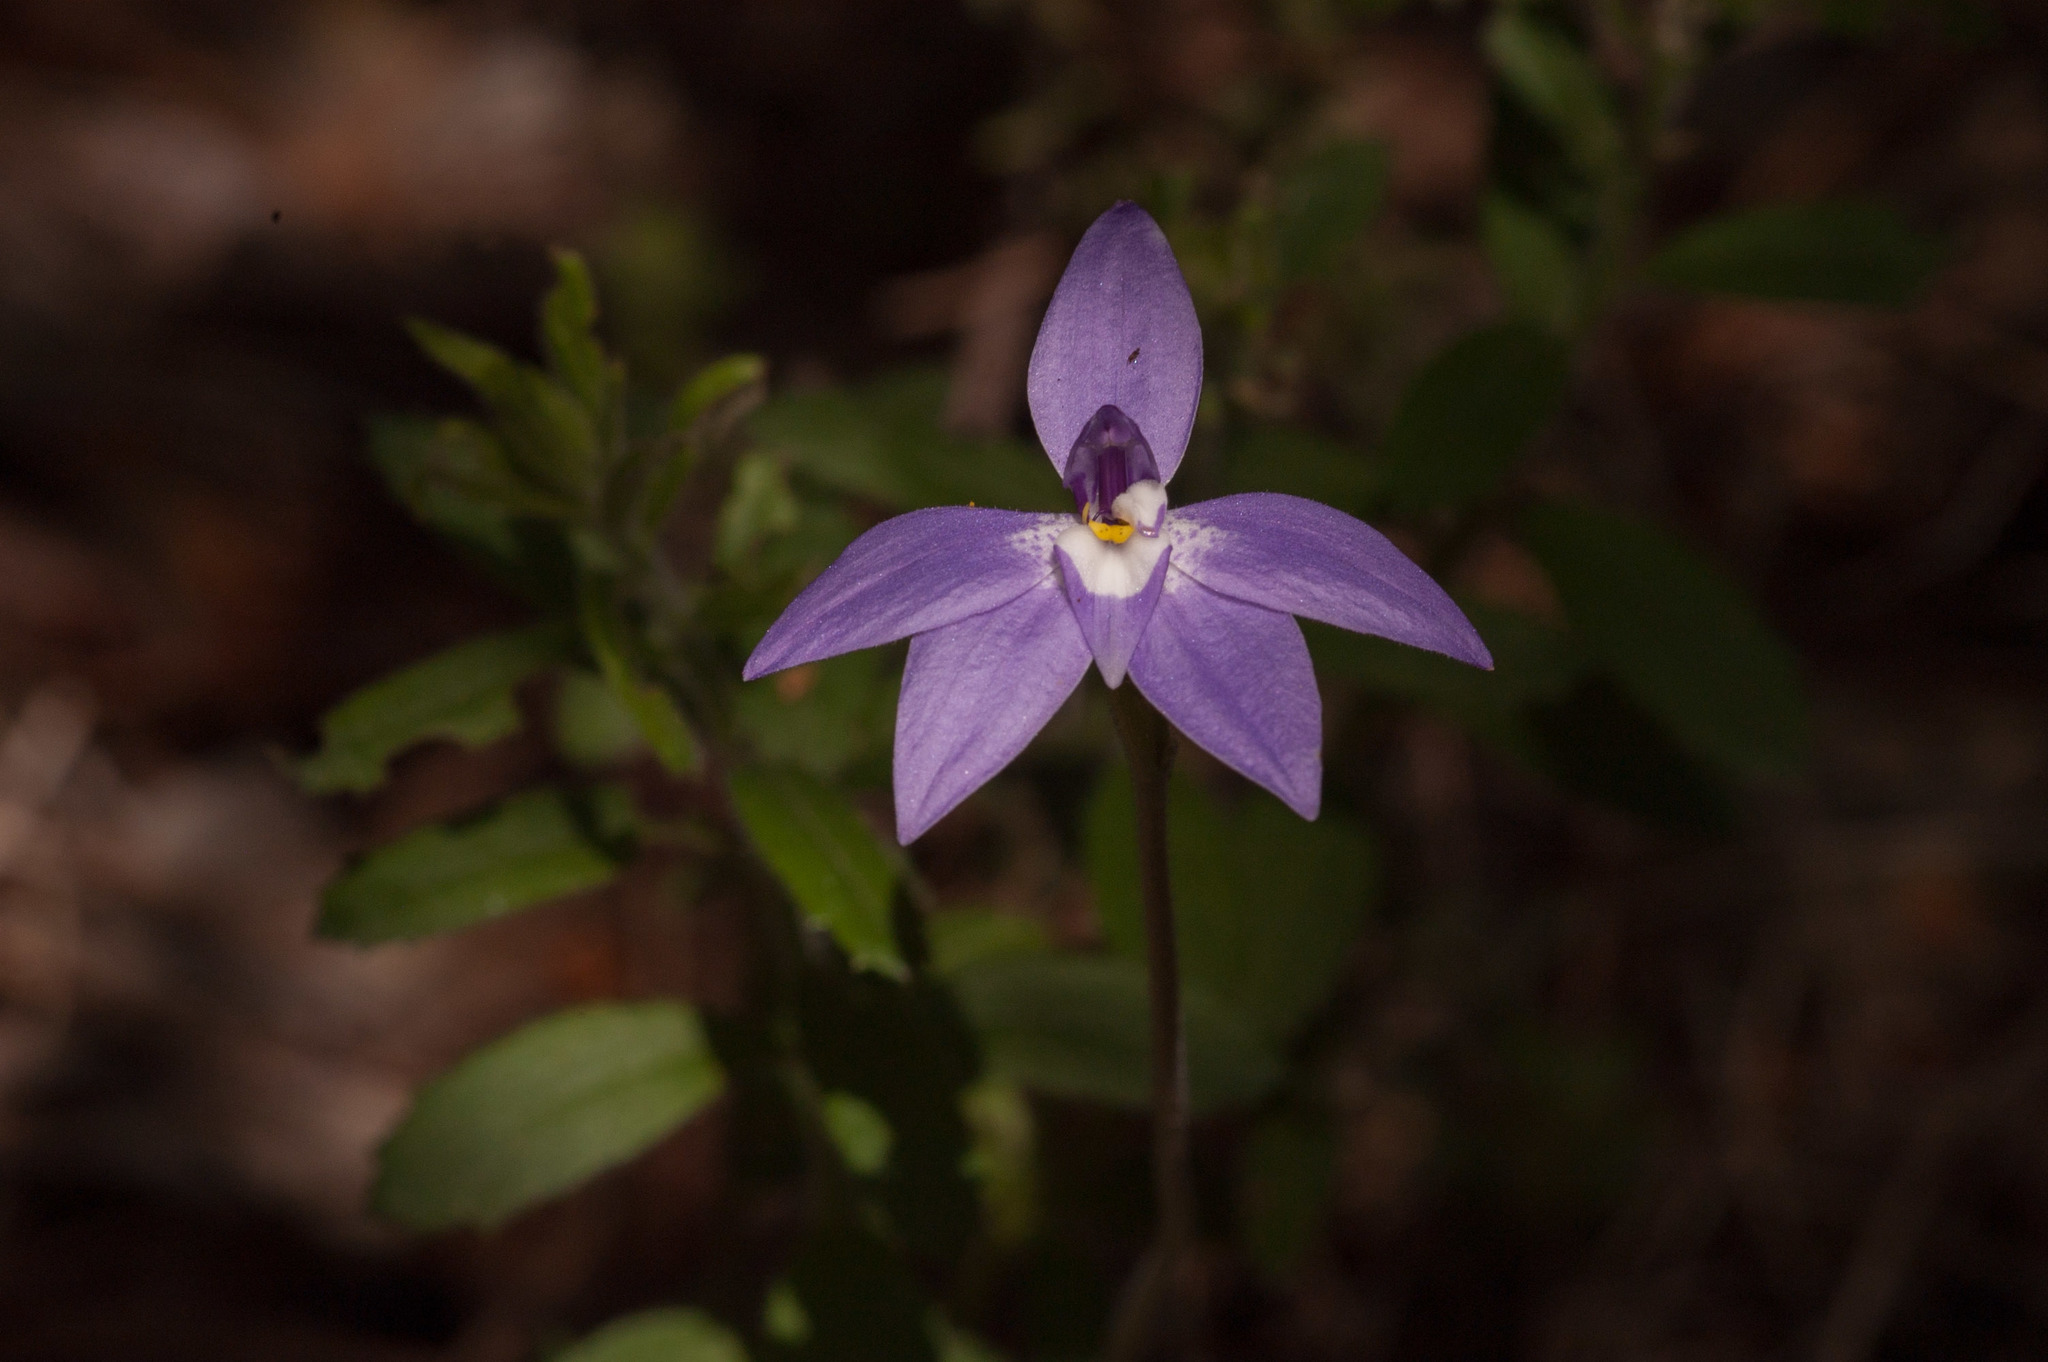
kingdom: Plantae
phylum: Tracheophyta
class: Liliopsida
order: Asparagales
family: Orchidaceae
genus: Caladenia
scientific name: Caladenia major
